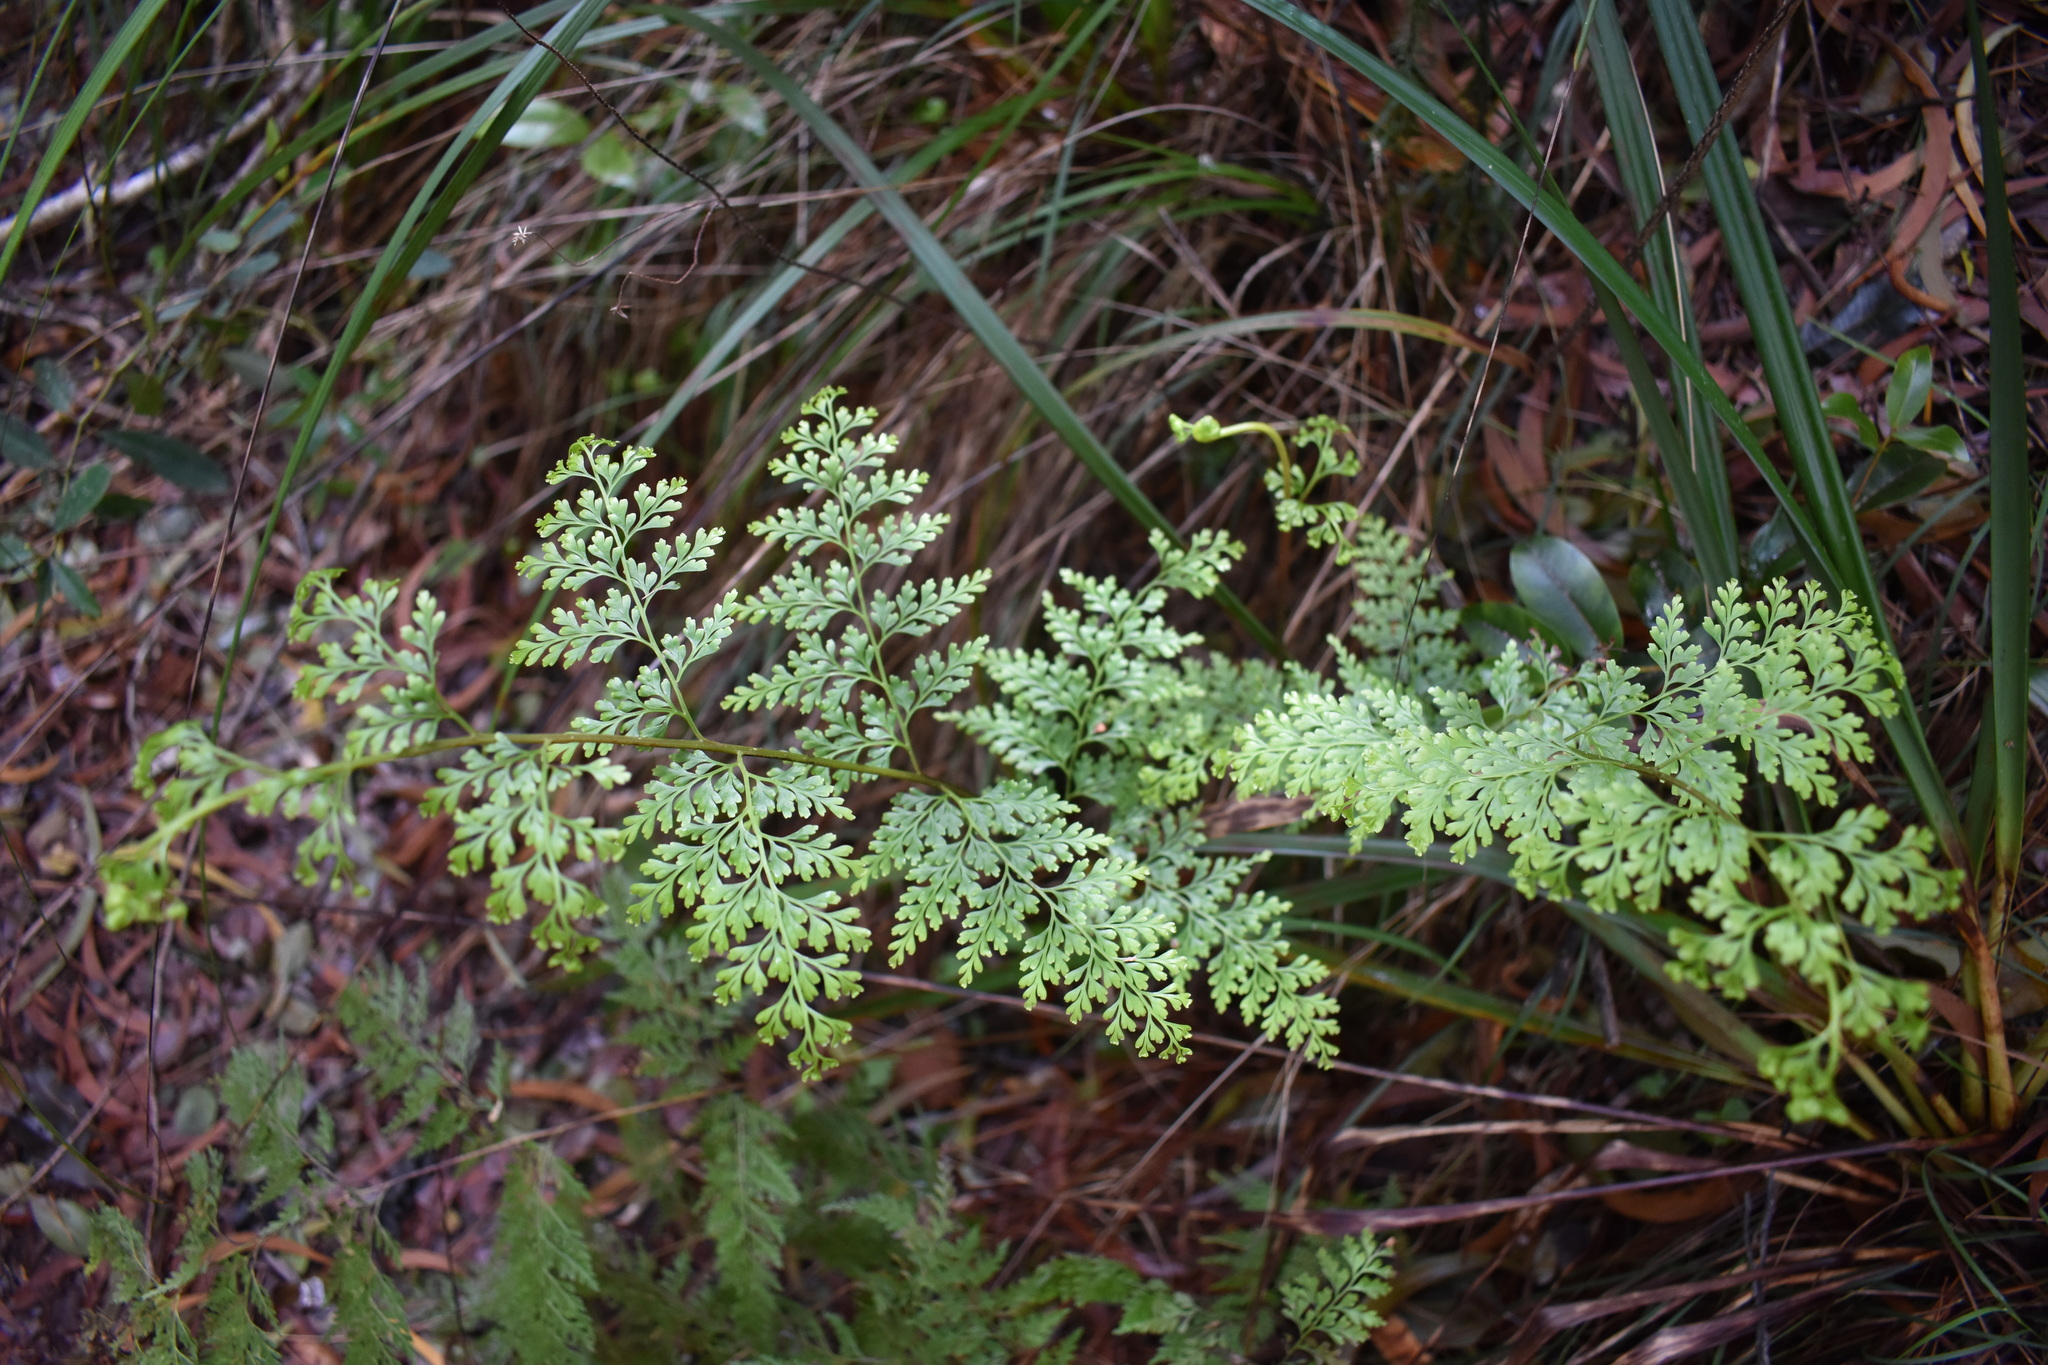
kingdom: Plantae
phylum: Tracheophyta
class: Polypodiopsida
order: Polypodiales
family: Lindsaeaceae
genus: Odontosoria
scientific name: Odontosoria chinensis
